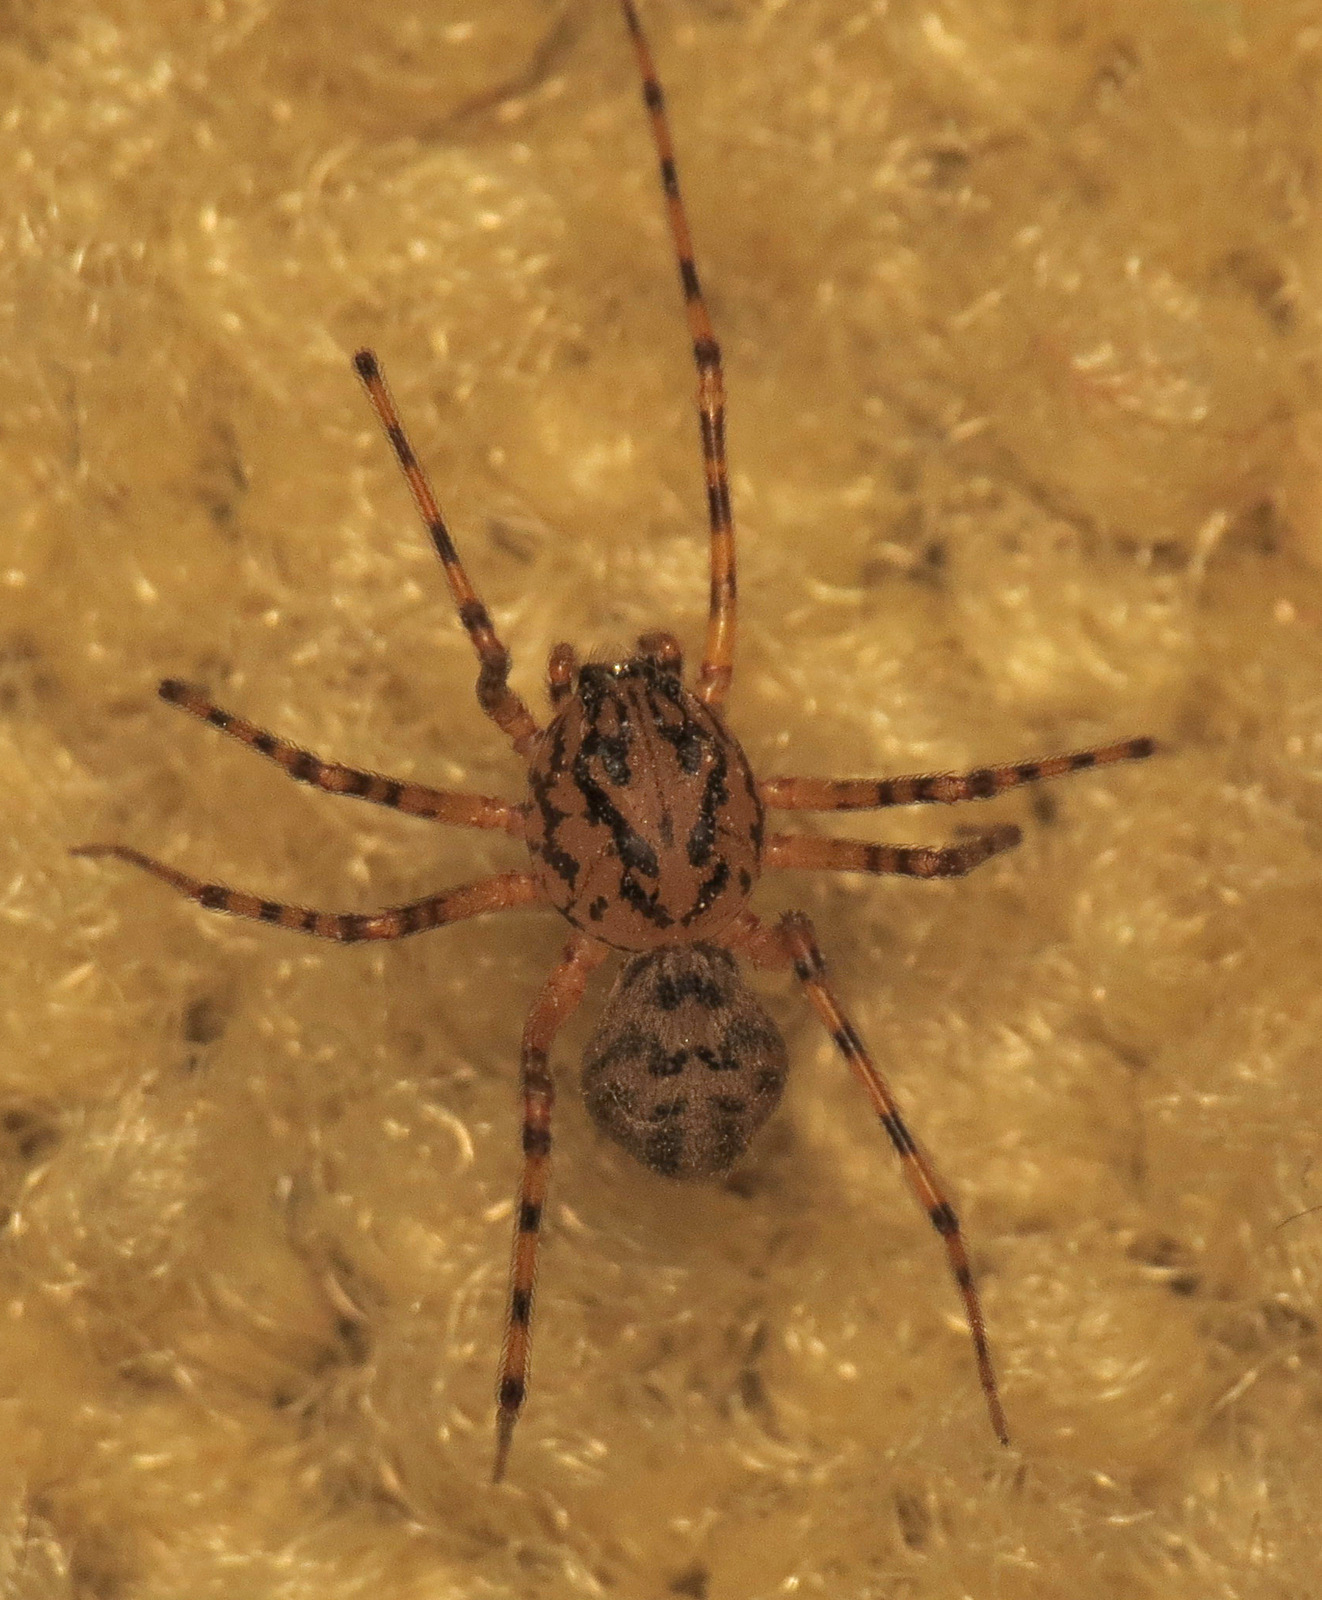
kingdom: Animalia
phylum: Arthropoda
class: Arachnida
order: Araneae
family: Scytodidae
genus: Scytodes
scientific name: Scytodes thoracica
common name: Spitting spider
